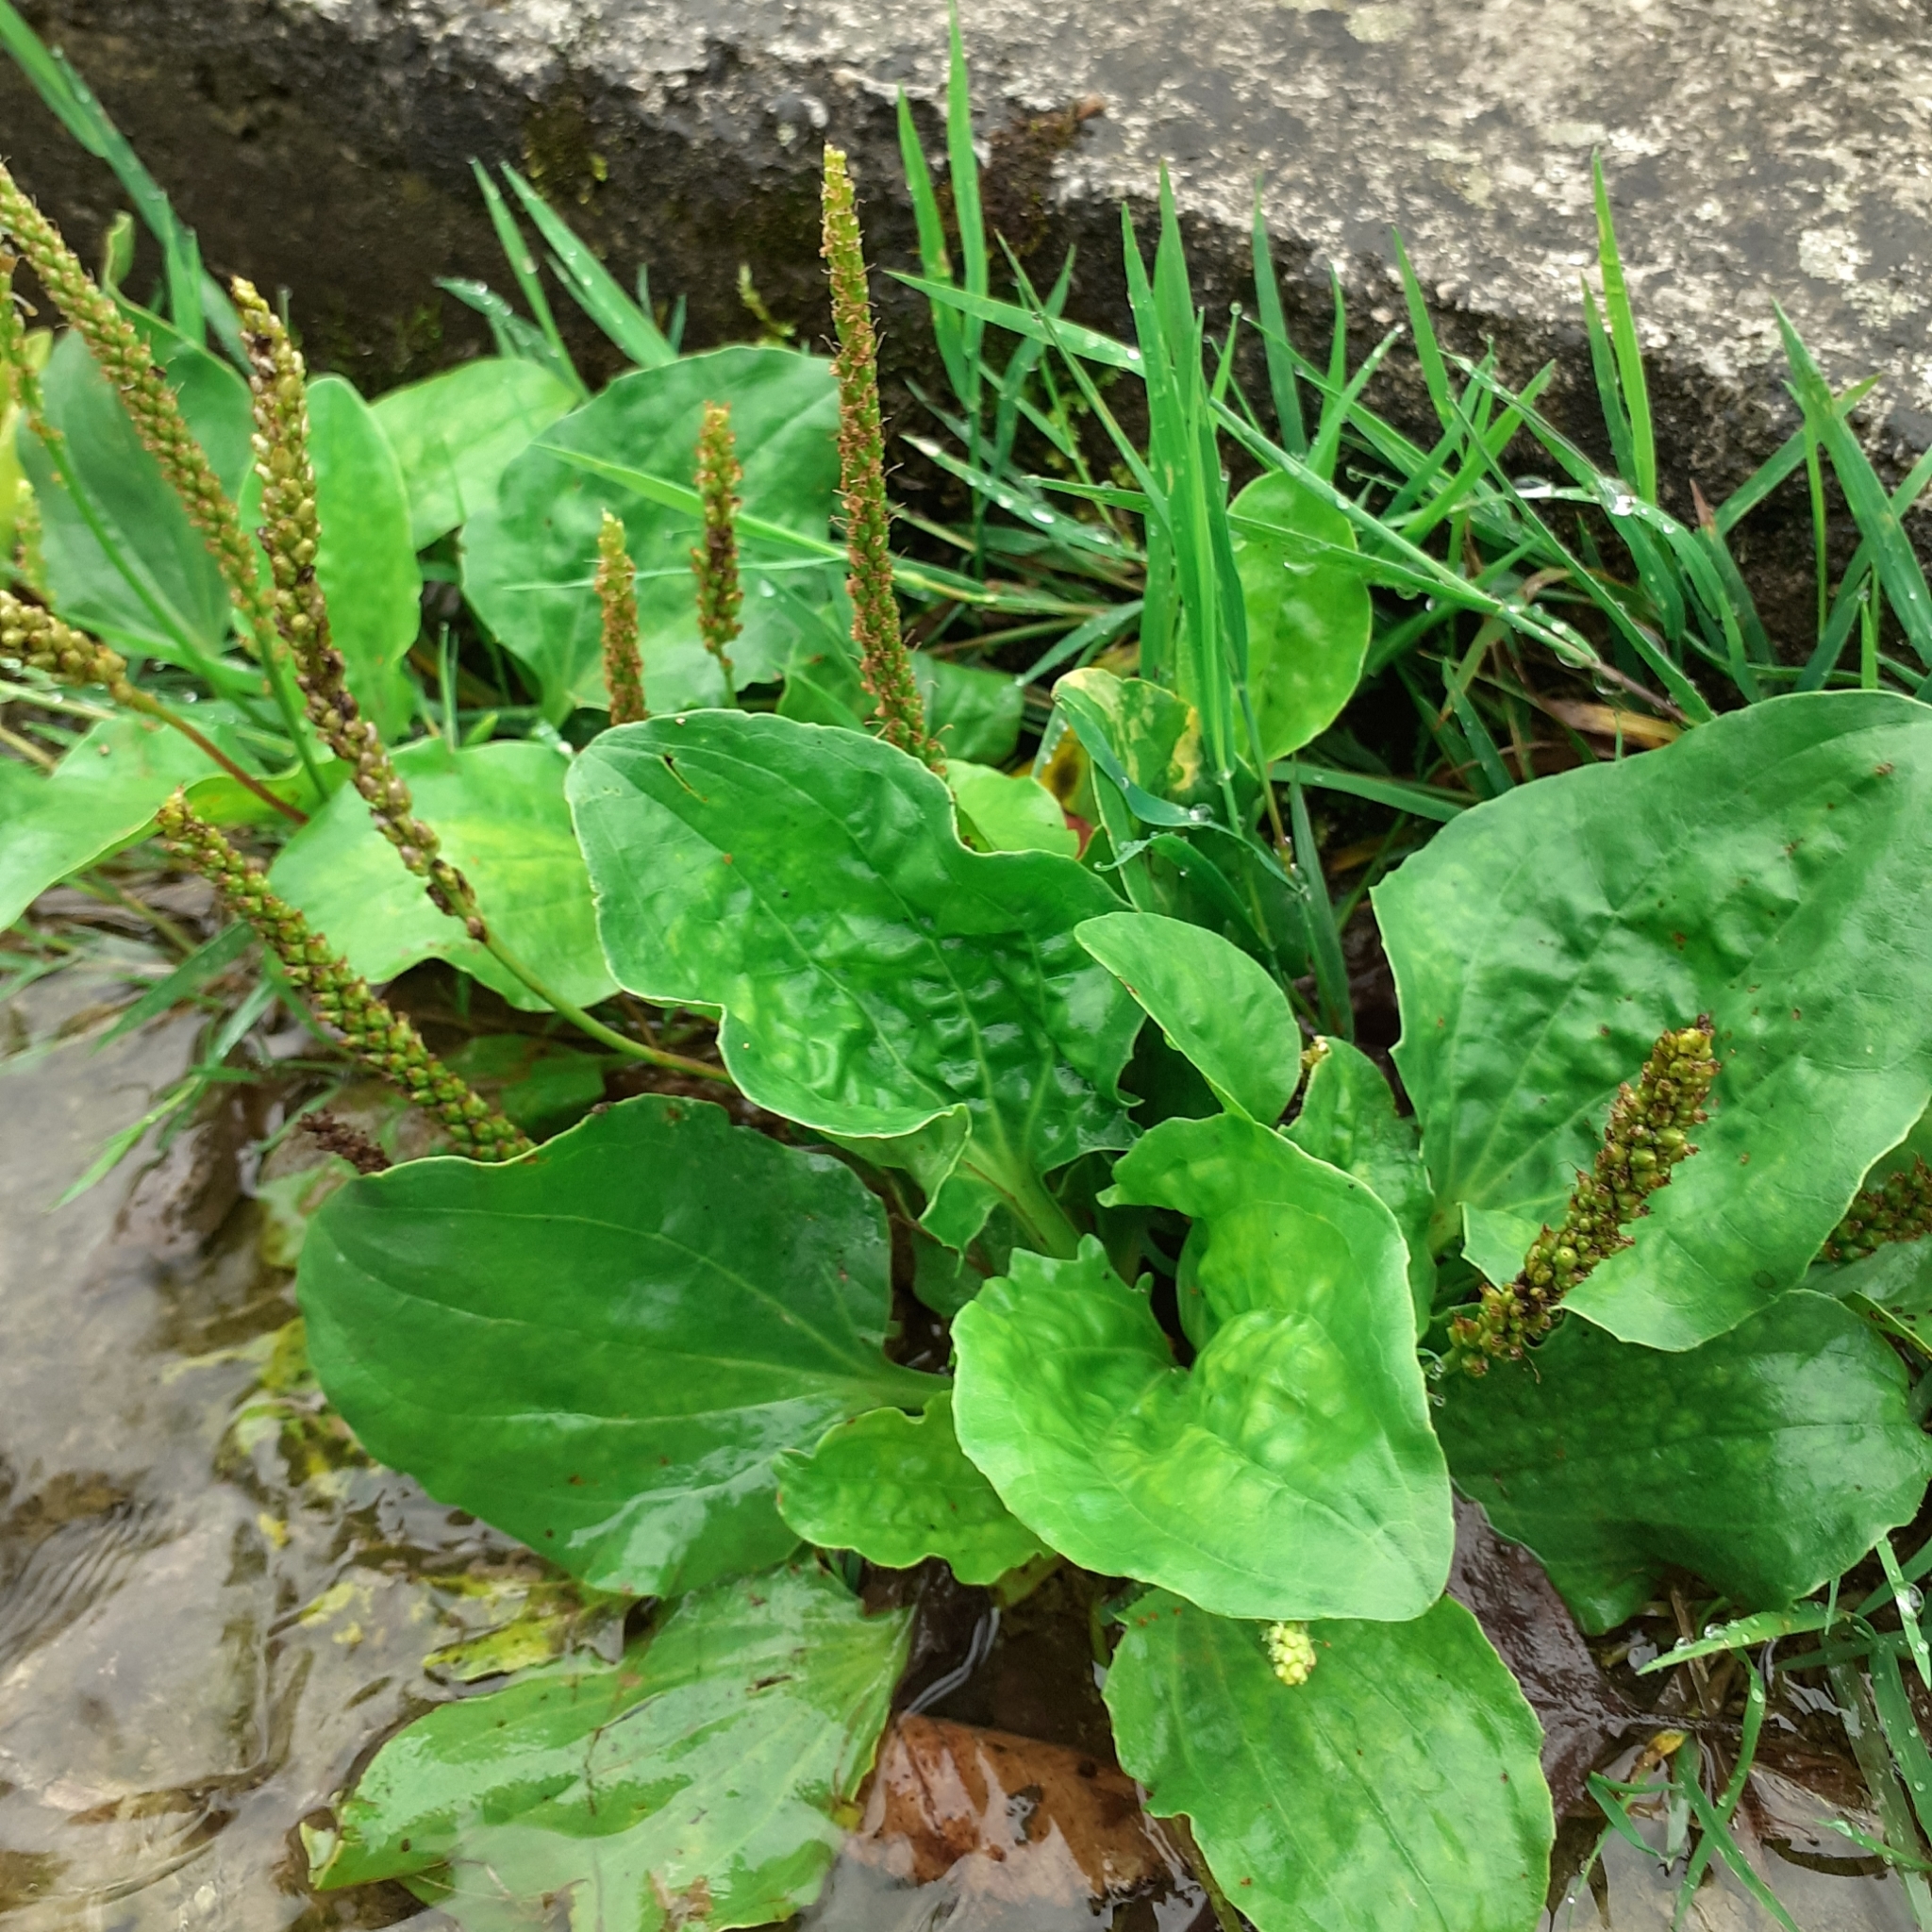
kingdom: Plantae
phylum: Tracheophyta
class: Magnoliopsida
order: Lamiales
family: Plantaginaceae
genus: Plantago
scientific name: Plantago major
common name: Common plantain
